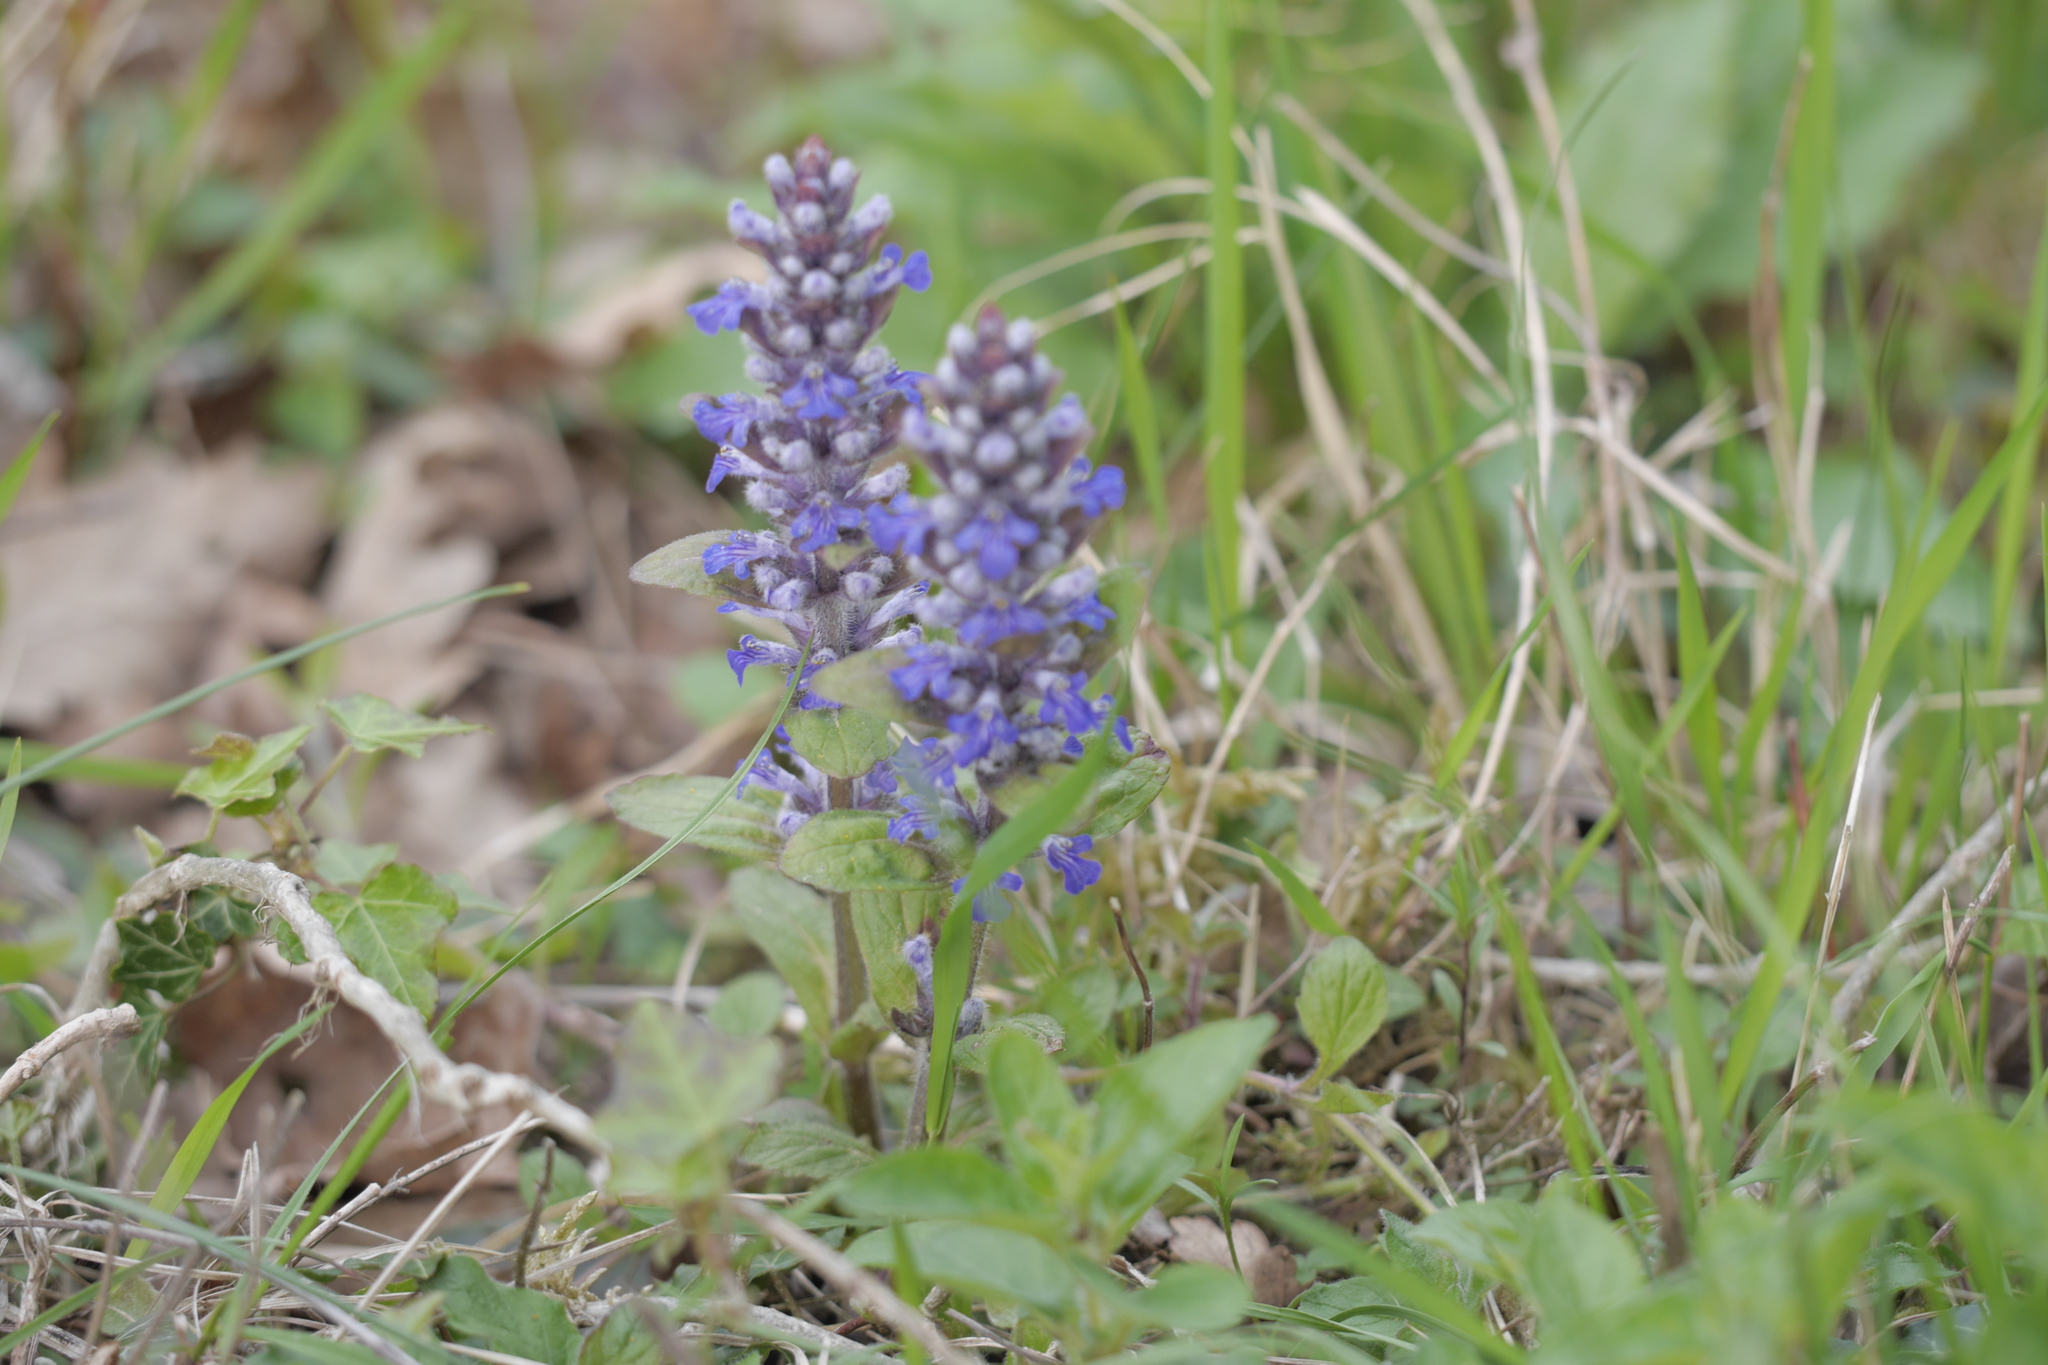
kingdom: Plantae
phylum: Tracheophyta
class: Magnoliopsida
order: Lamiales
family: Lamiaceae
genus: Ajuga
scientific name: Ajuga reptans
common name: Bugle
